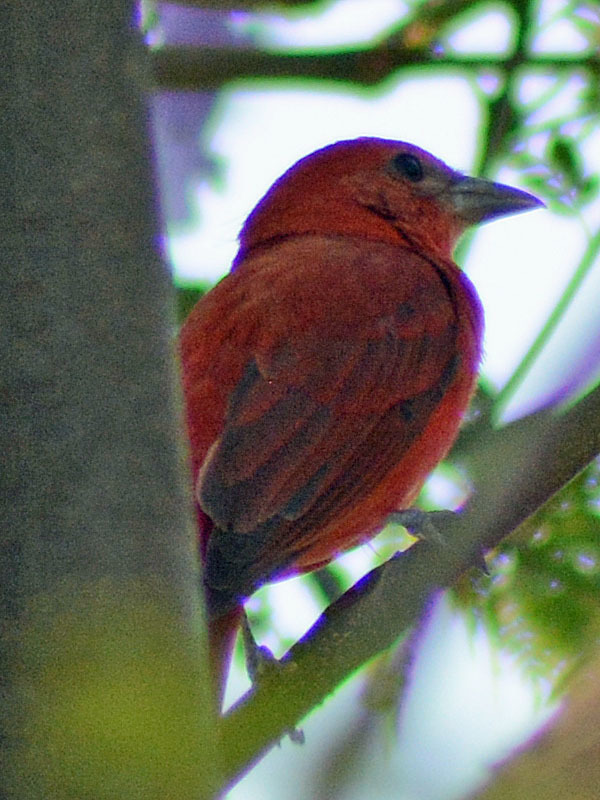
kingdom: Animalia
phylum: Chordata
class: Aves
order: Passeriformes
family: Cardinalidae
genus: Piranga
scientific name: Piranga flava
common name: Red tanager
